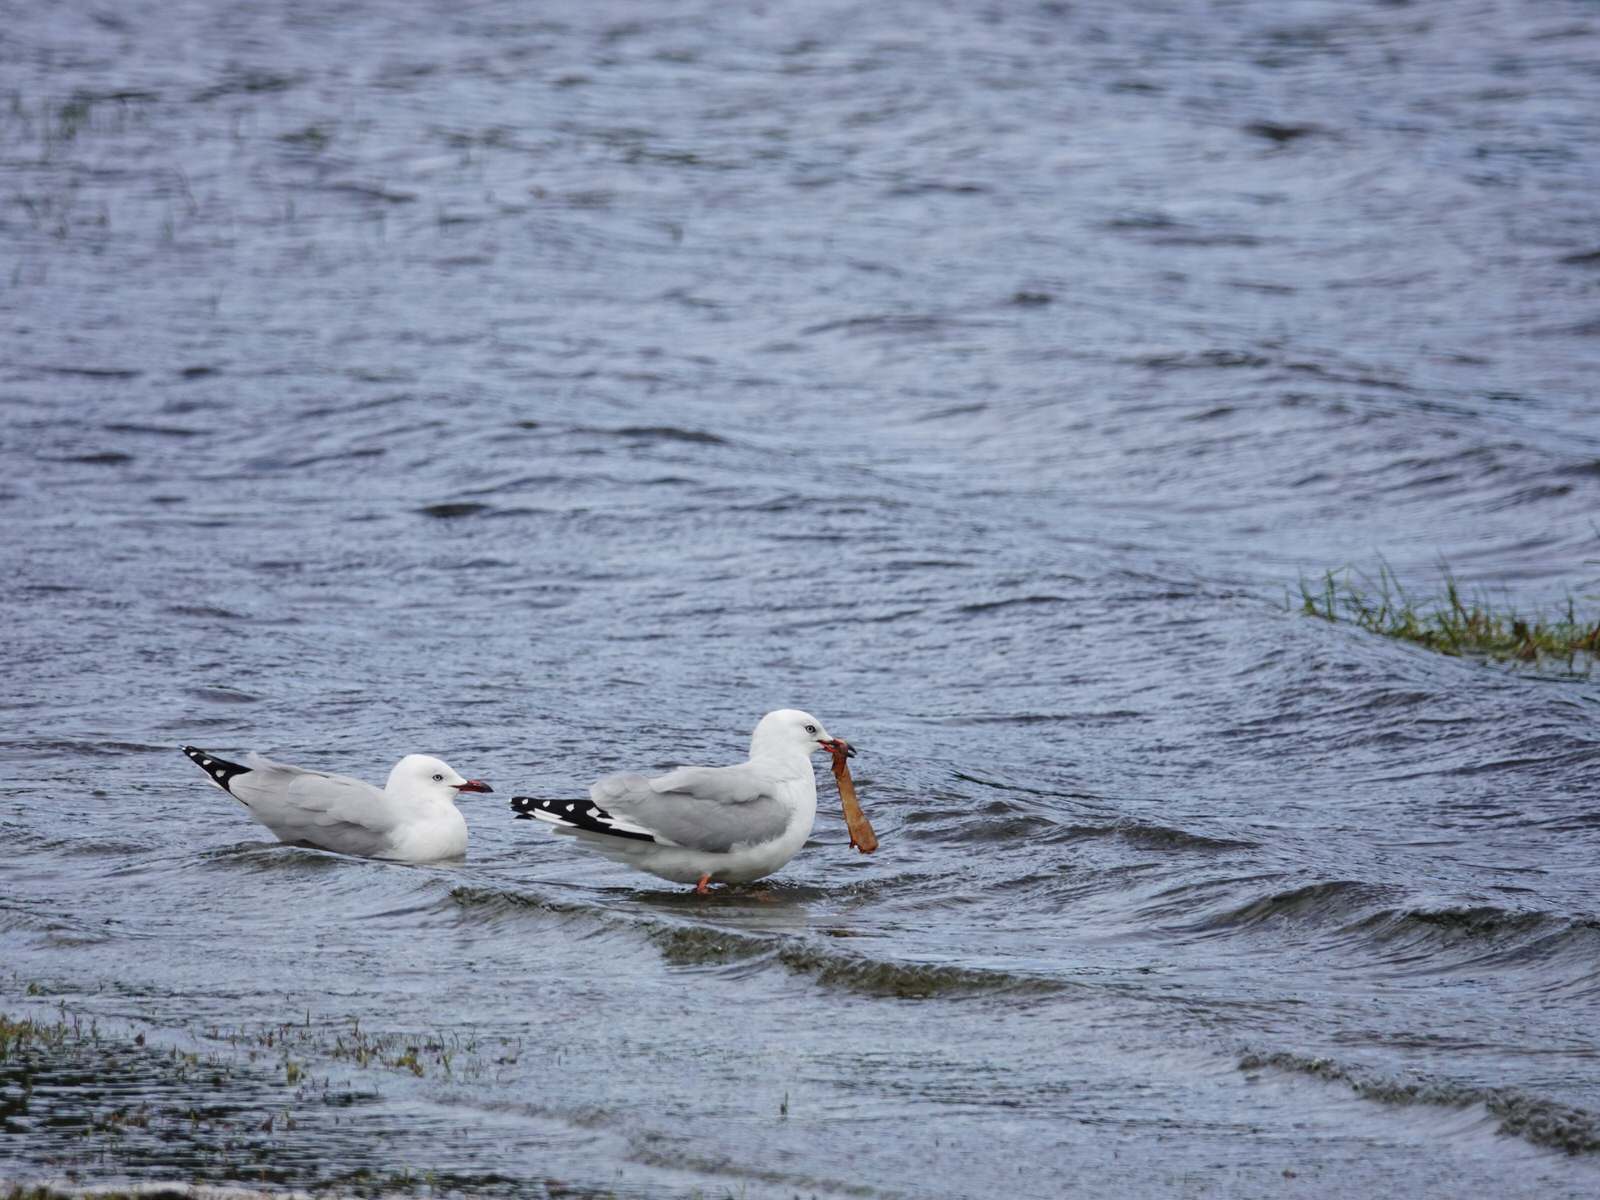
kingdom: Animalia
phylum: Chordata
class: Aves
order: Charadriiformes
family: Laridae
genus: Chroicocephalus
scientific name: Chroicocephalus novaehollandiae
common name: Silver gull
